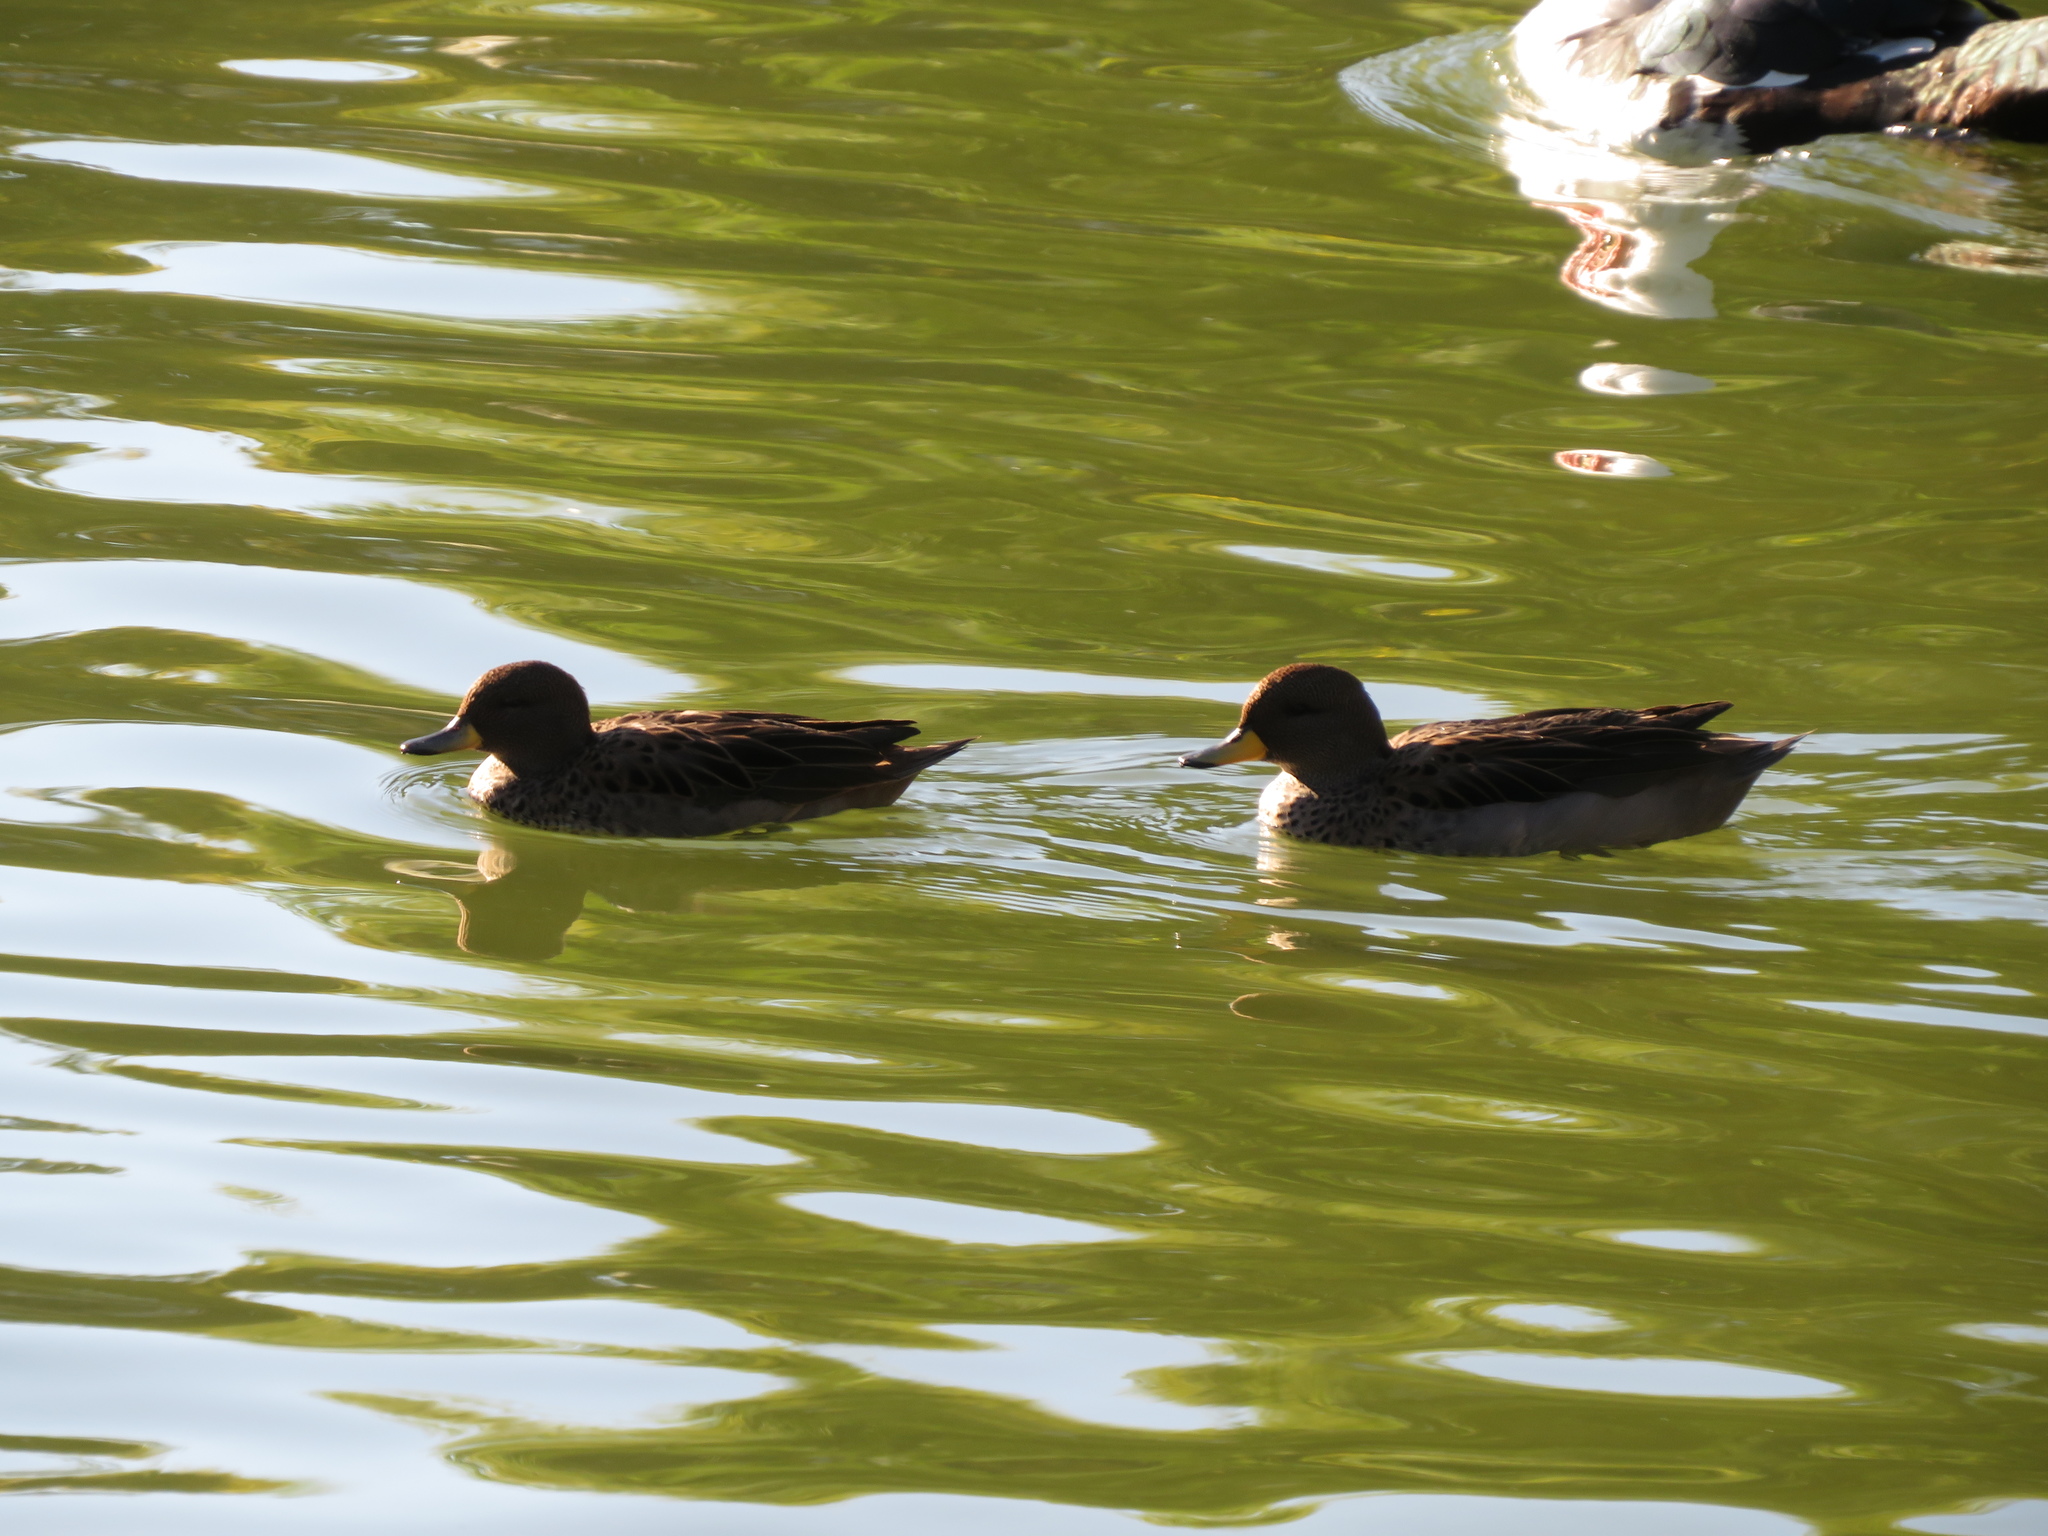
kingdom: Animalia
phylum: Chordata
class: Aves
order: Anseriformes
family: Anatidae
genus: Anas
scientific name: Anas flavirostris
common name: Yellow-billed teal
